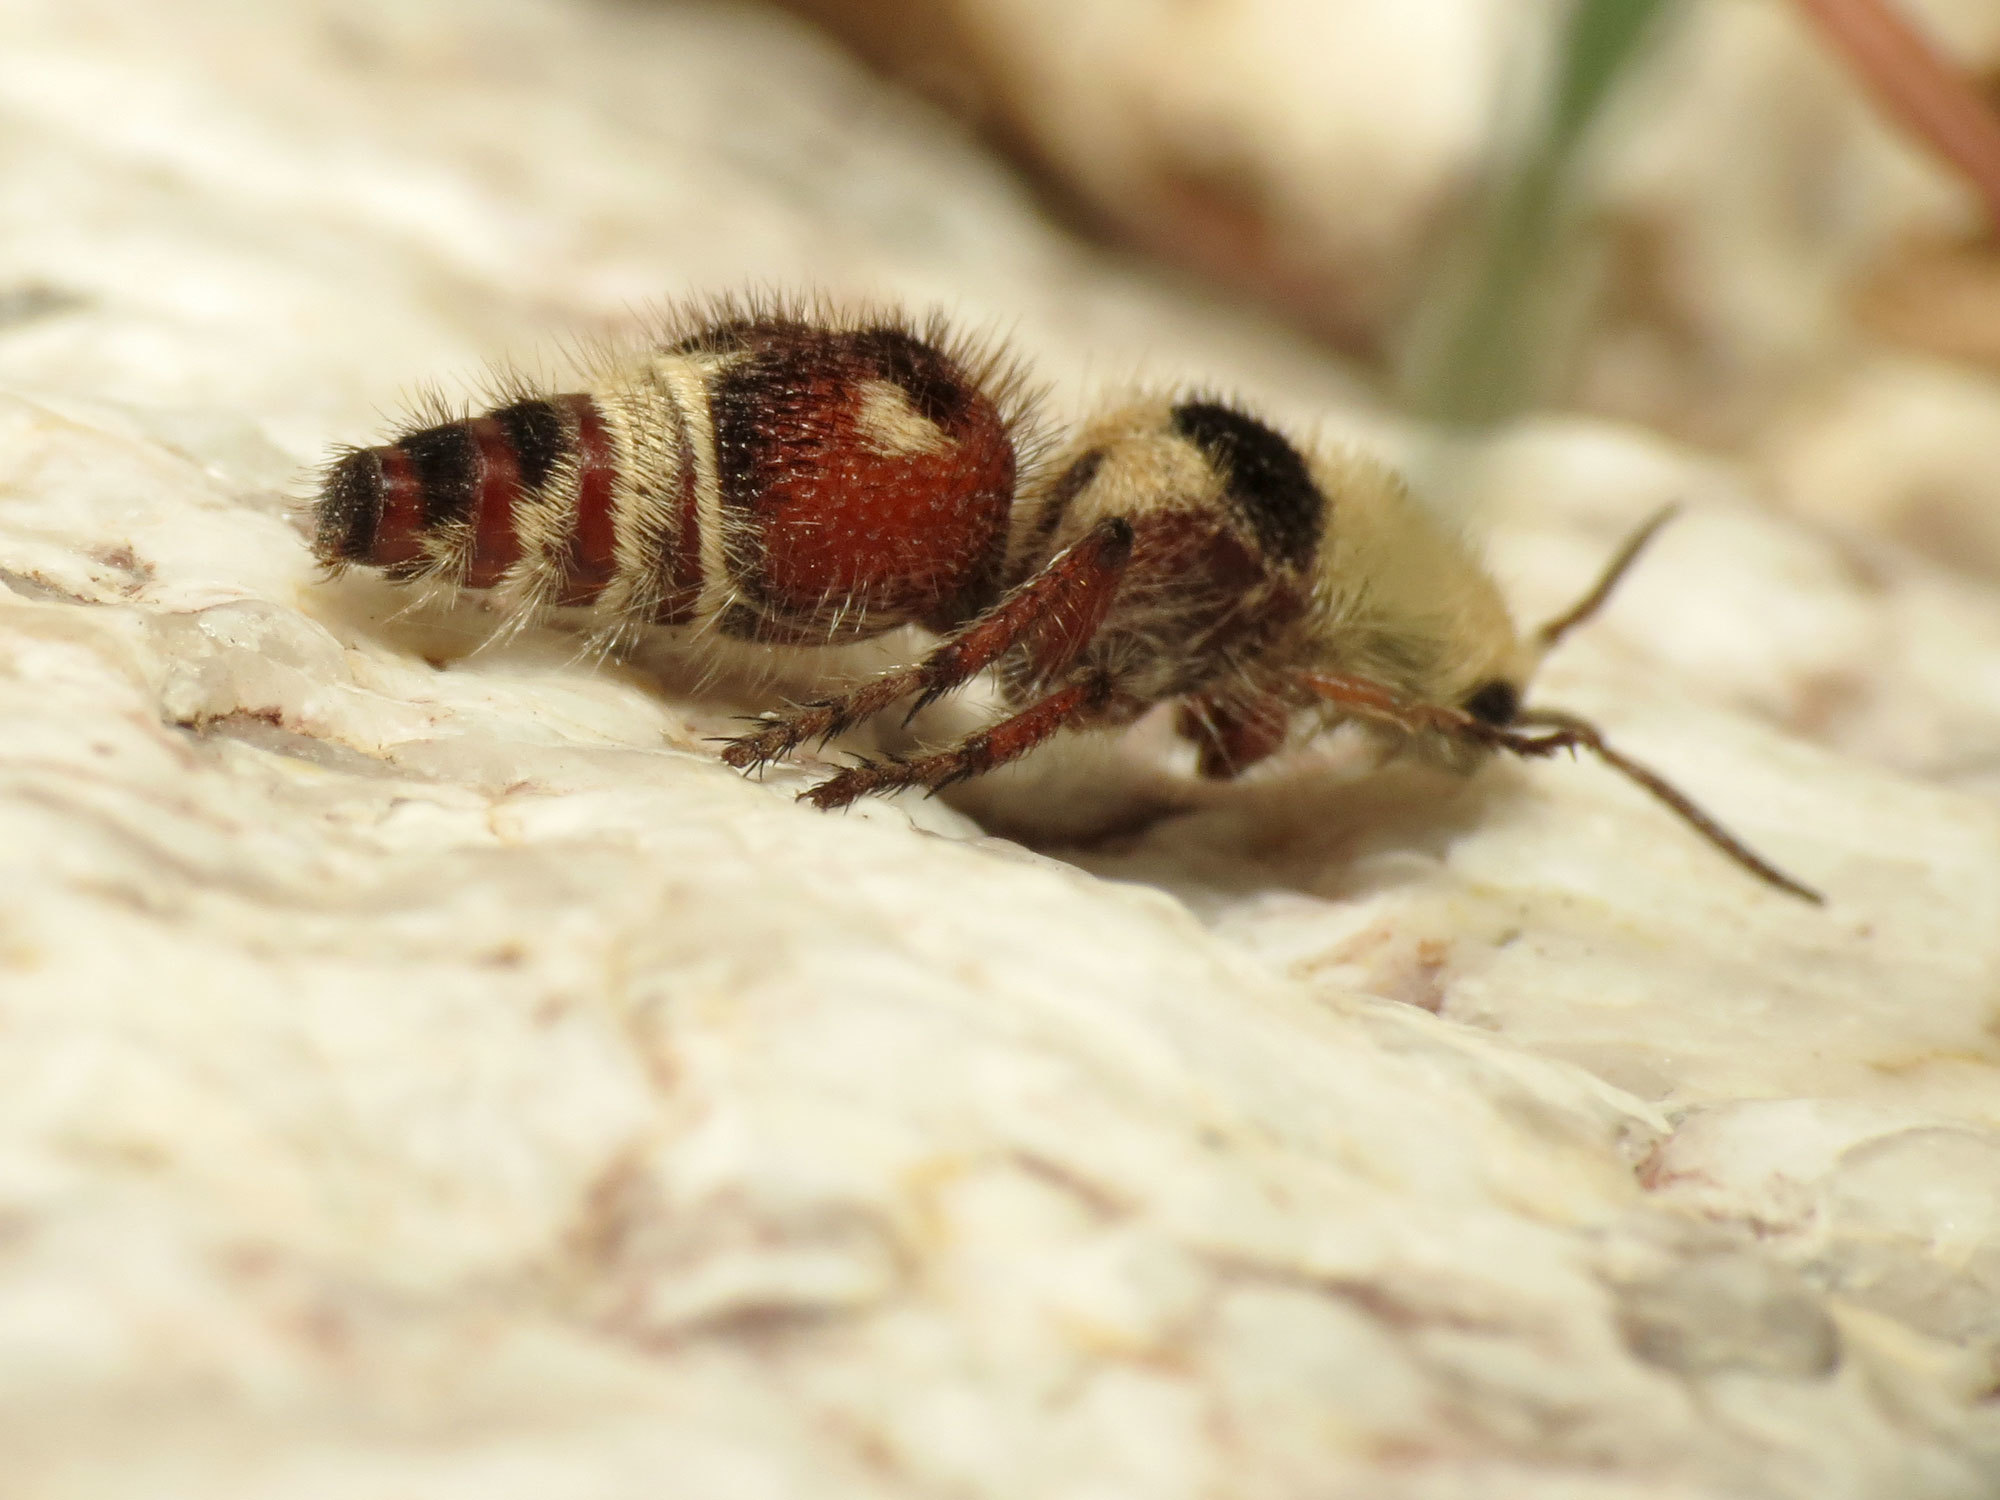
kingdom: Animalia
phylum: Arthropoda
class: Insecta
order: Hymenoptera
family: Mutillidae
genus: Dasymutilla
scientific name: Dasymutilla
